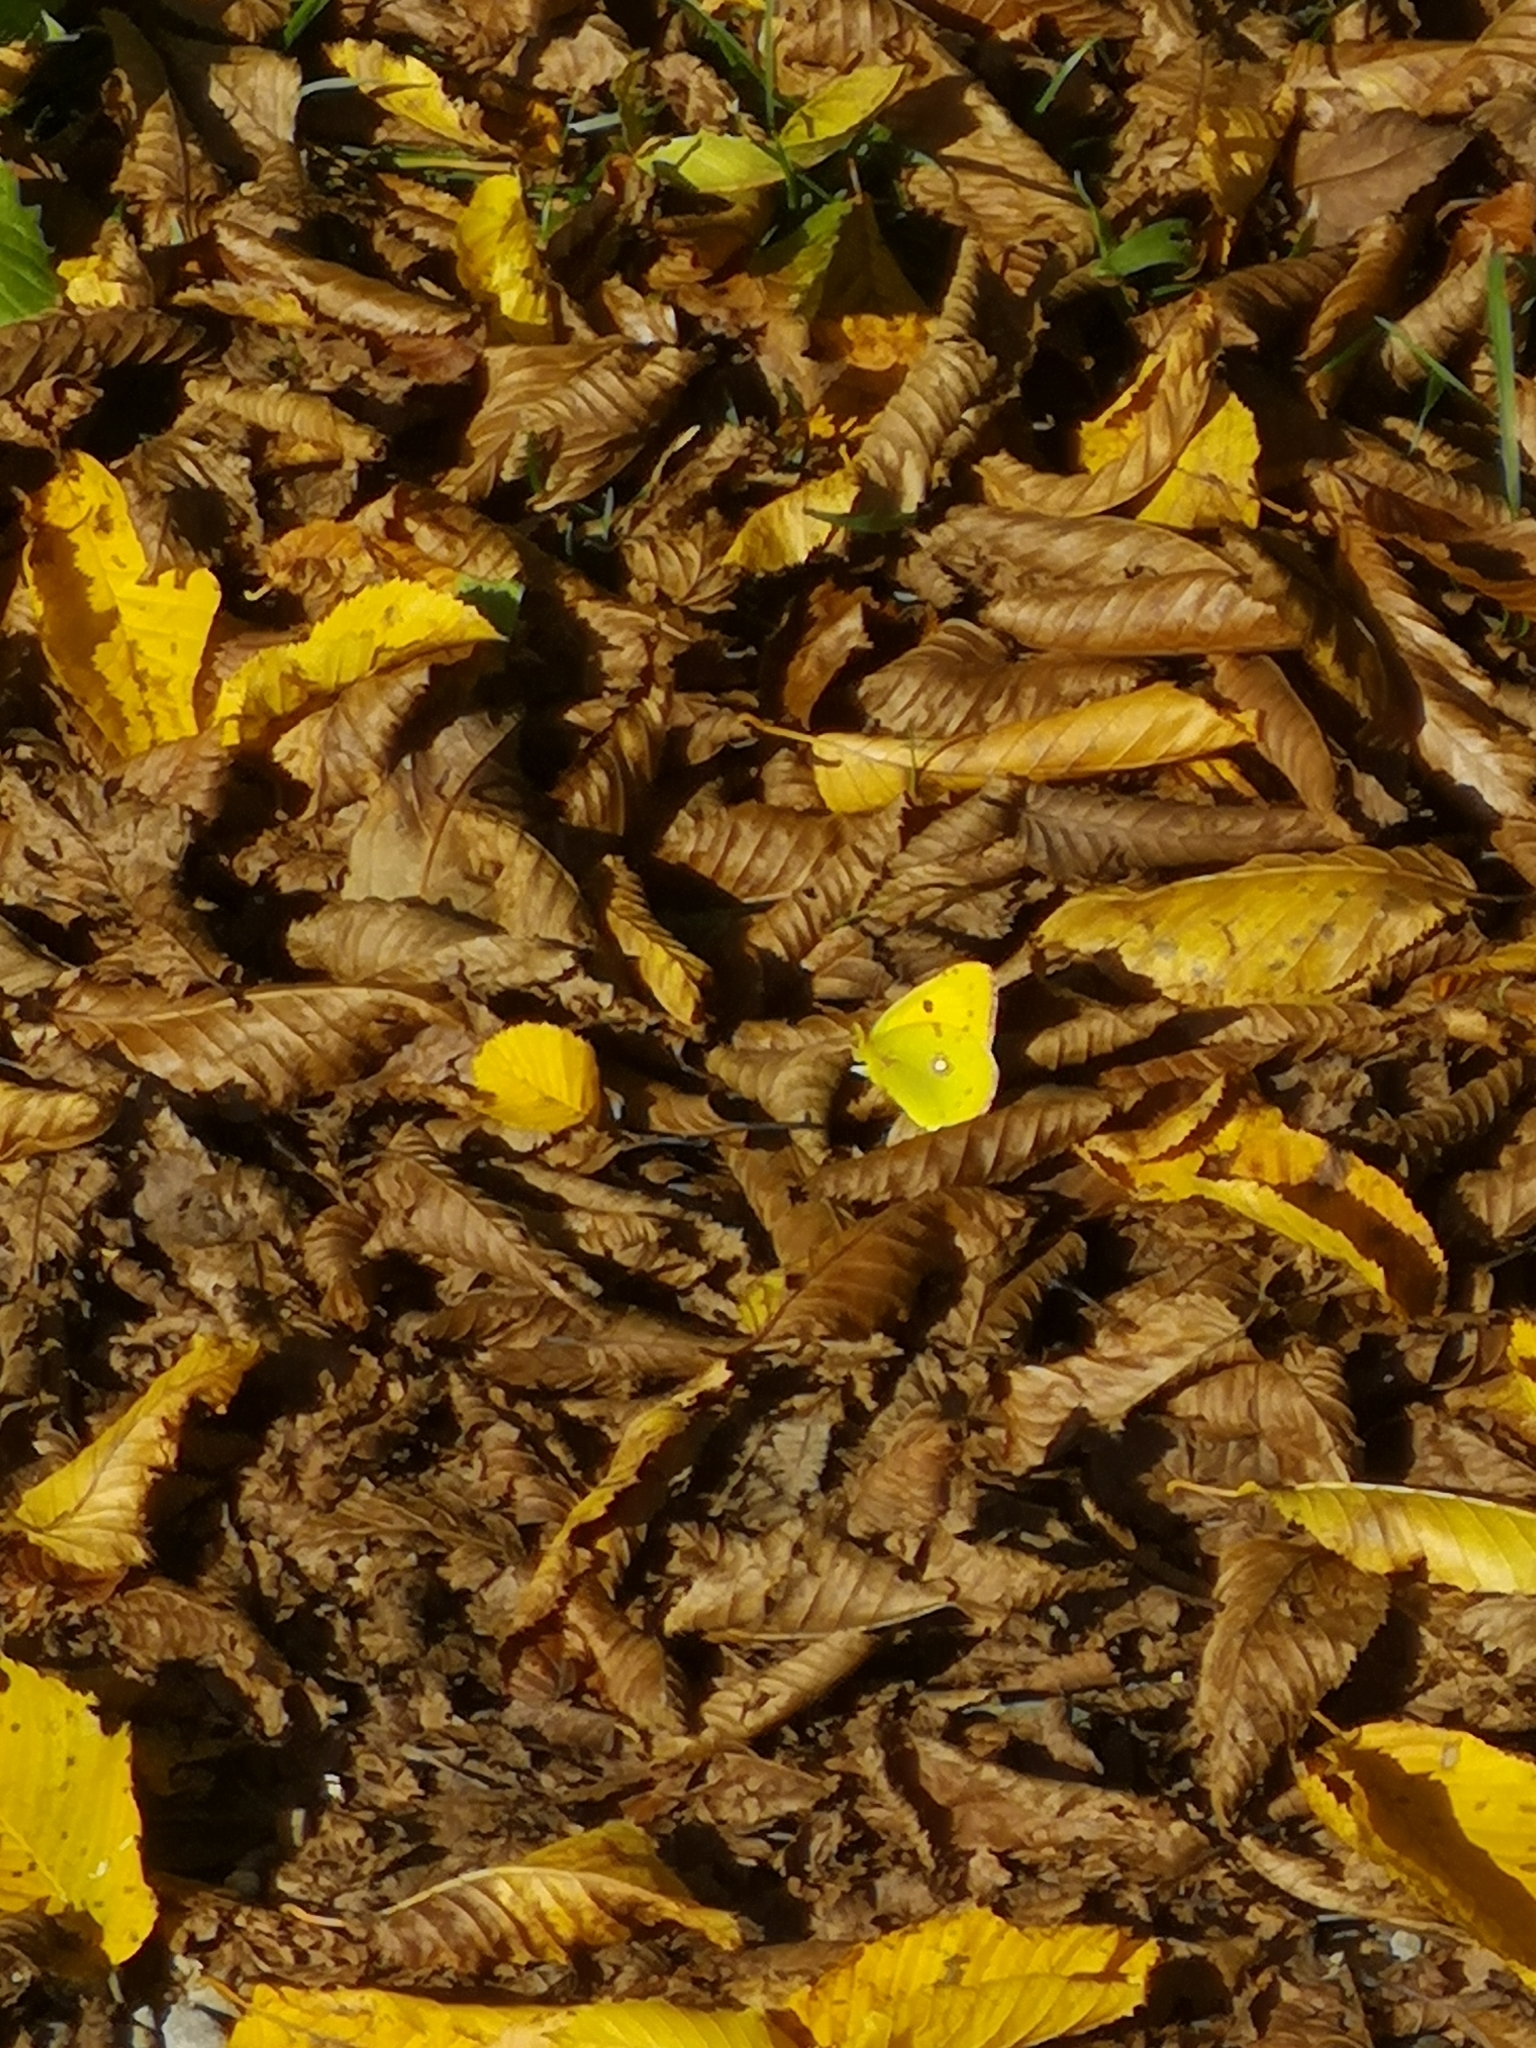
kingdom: Animalia
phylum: Arthropoda
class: Insecta
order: Lepidoptera
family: Pieridae
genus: Colias
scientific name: Colias croceus
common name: Clouded yellow
